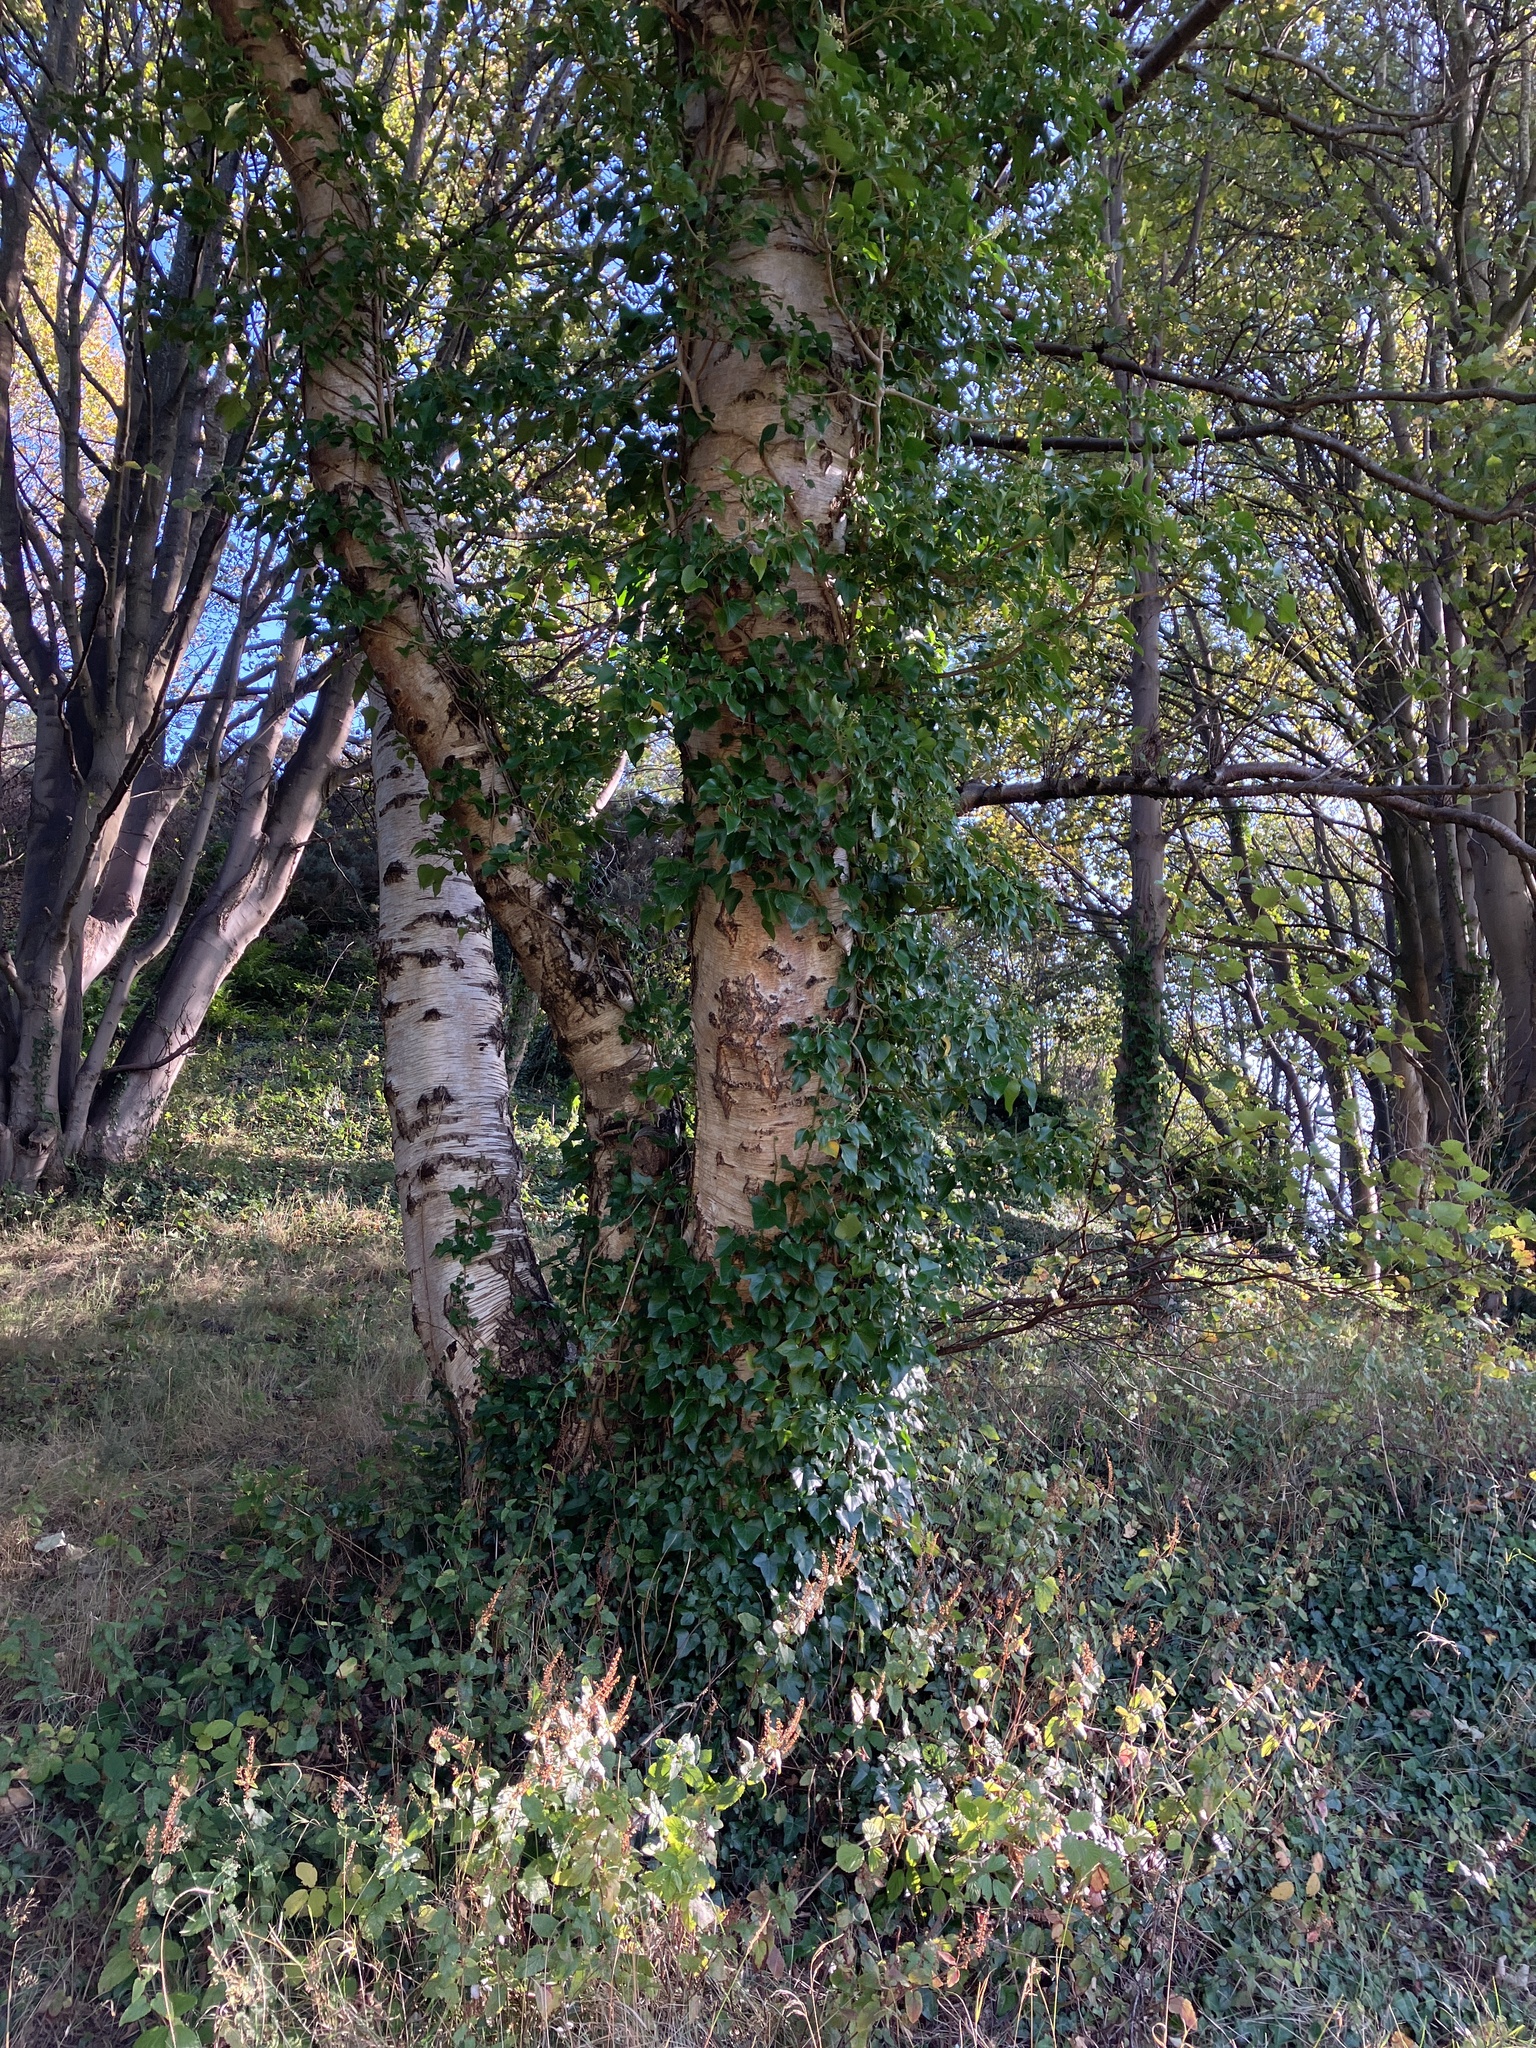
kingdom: Plantae
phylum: Tracheophyta
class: Magnoliopsida
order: Fagales
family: Betulaceae
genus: Betula
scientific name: Betula pendula
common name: Silver birch
